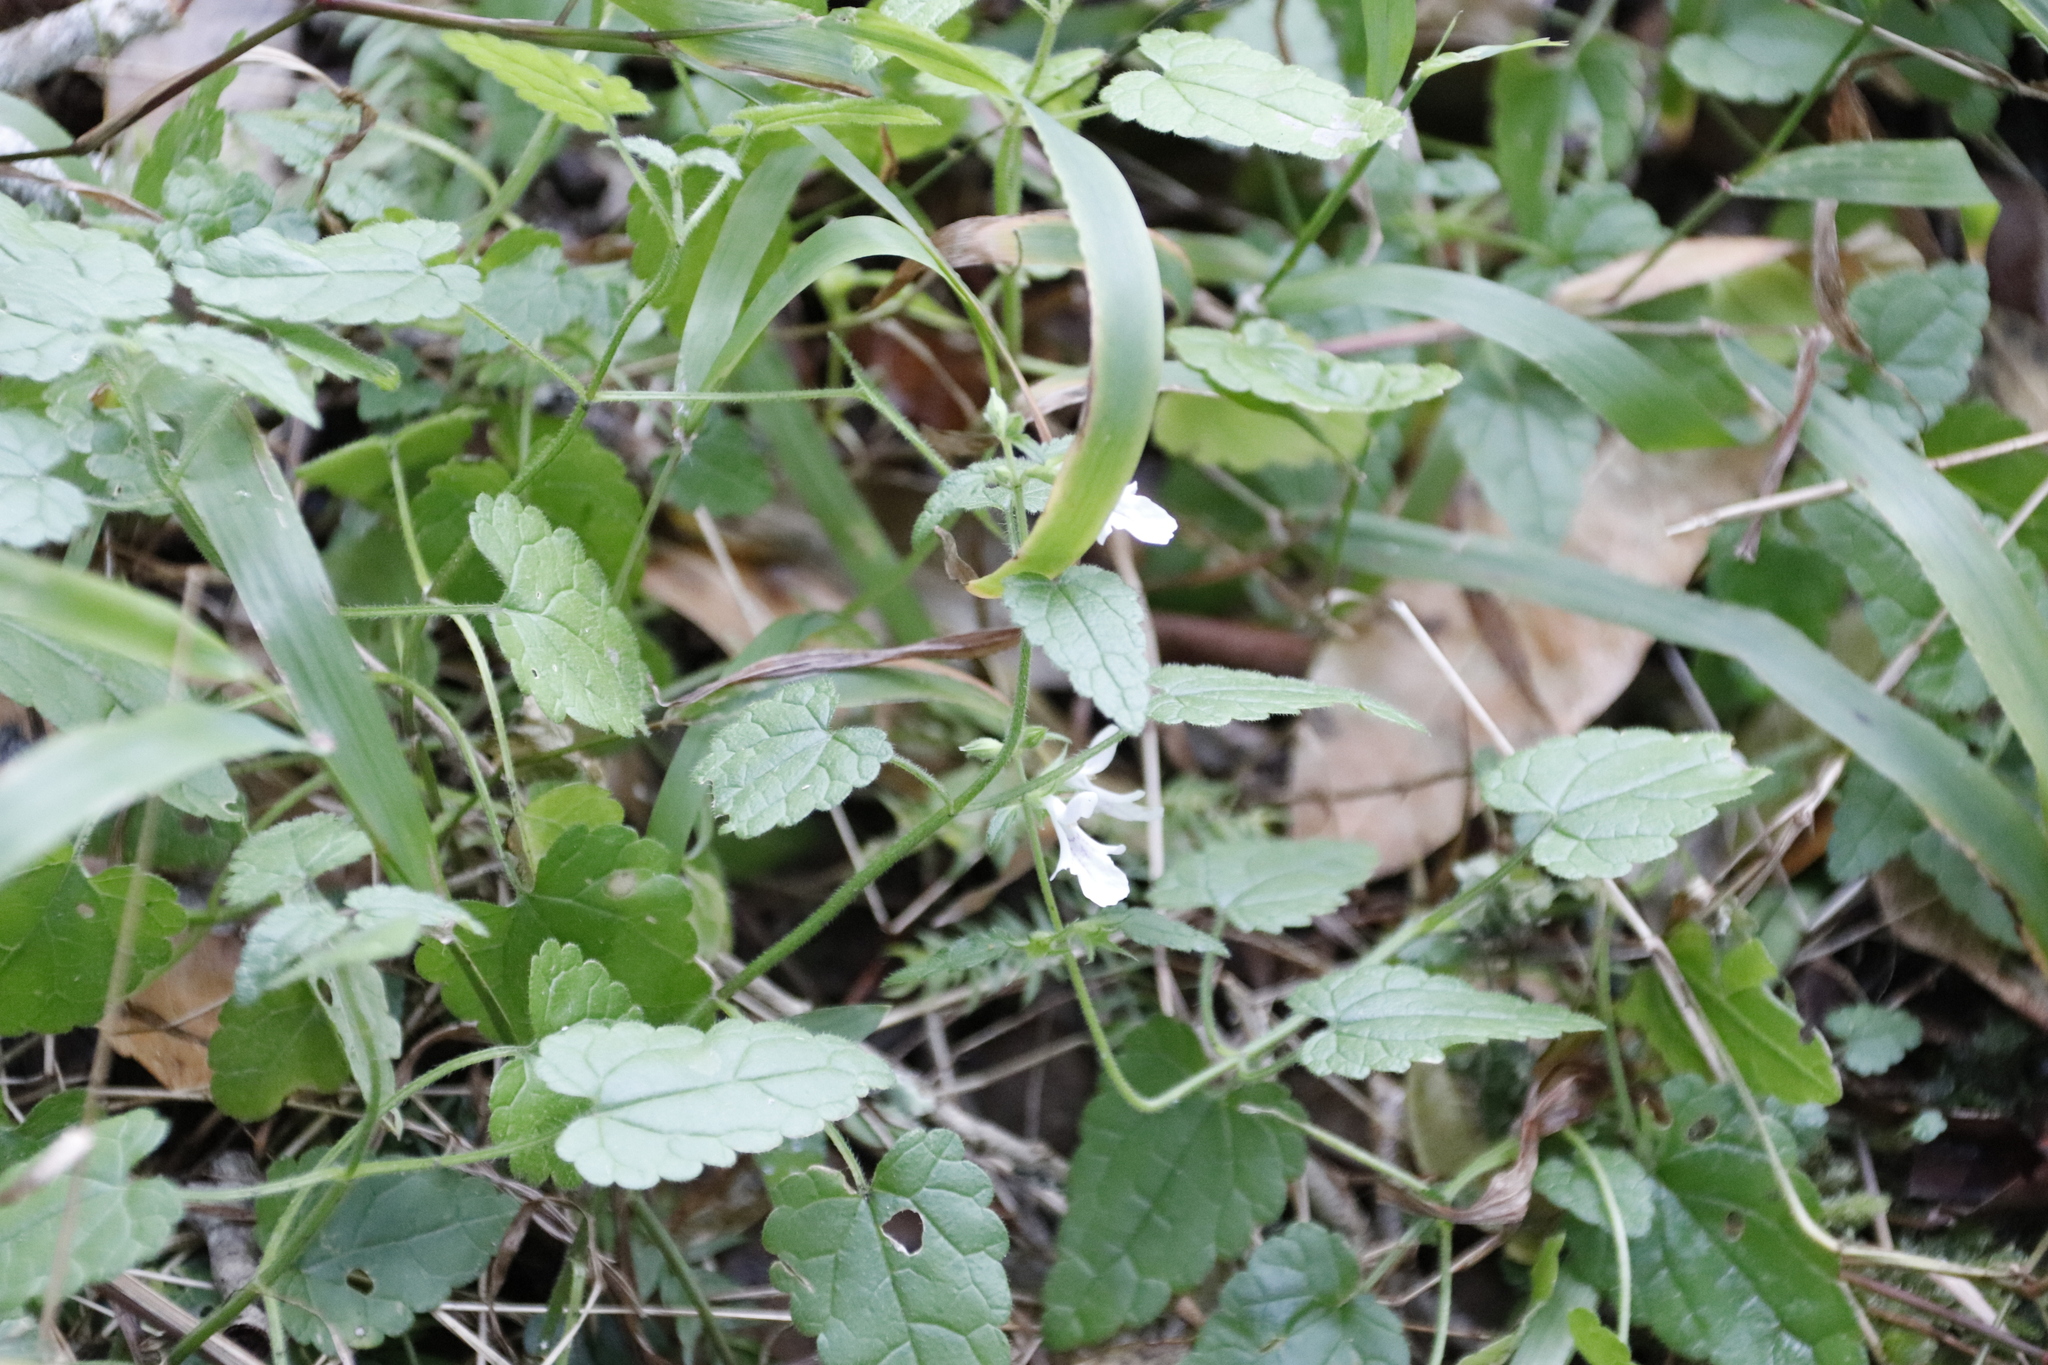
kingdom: Plantae
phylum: Tracheophyta
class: Magnoliopsida
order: Lamiales
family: Lamiaceae
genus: Stachys
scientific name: Stachys aethiopica
